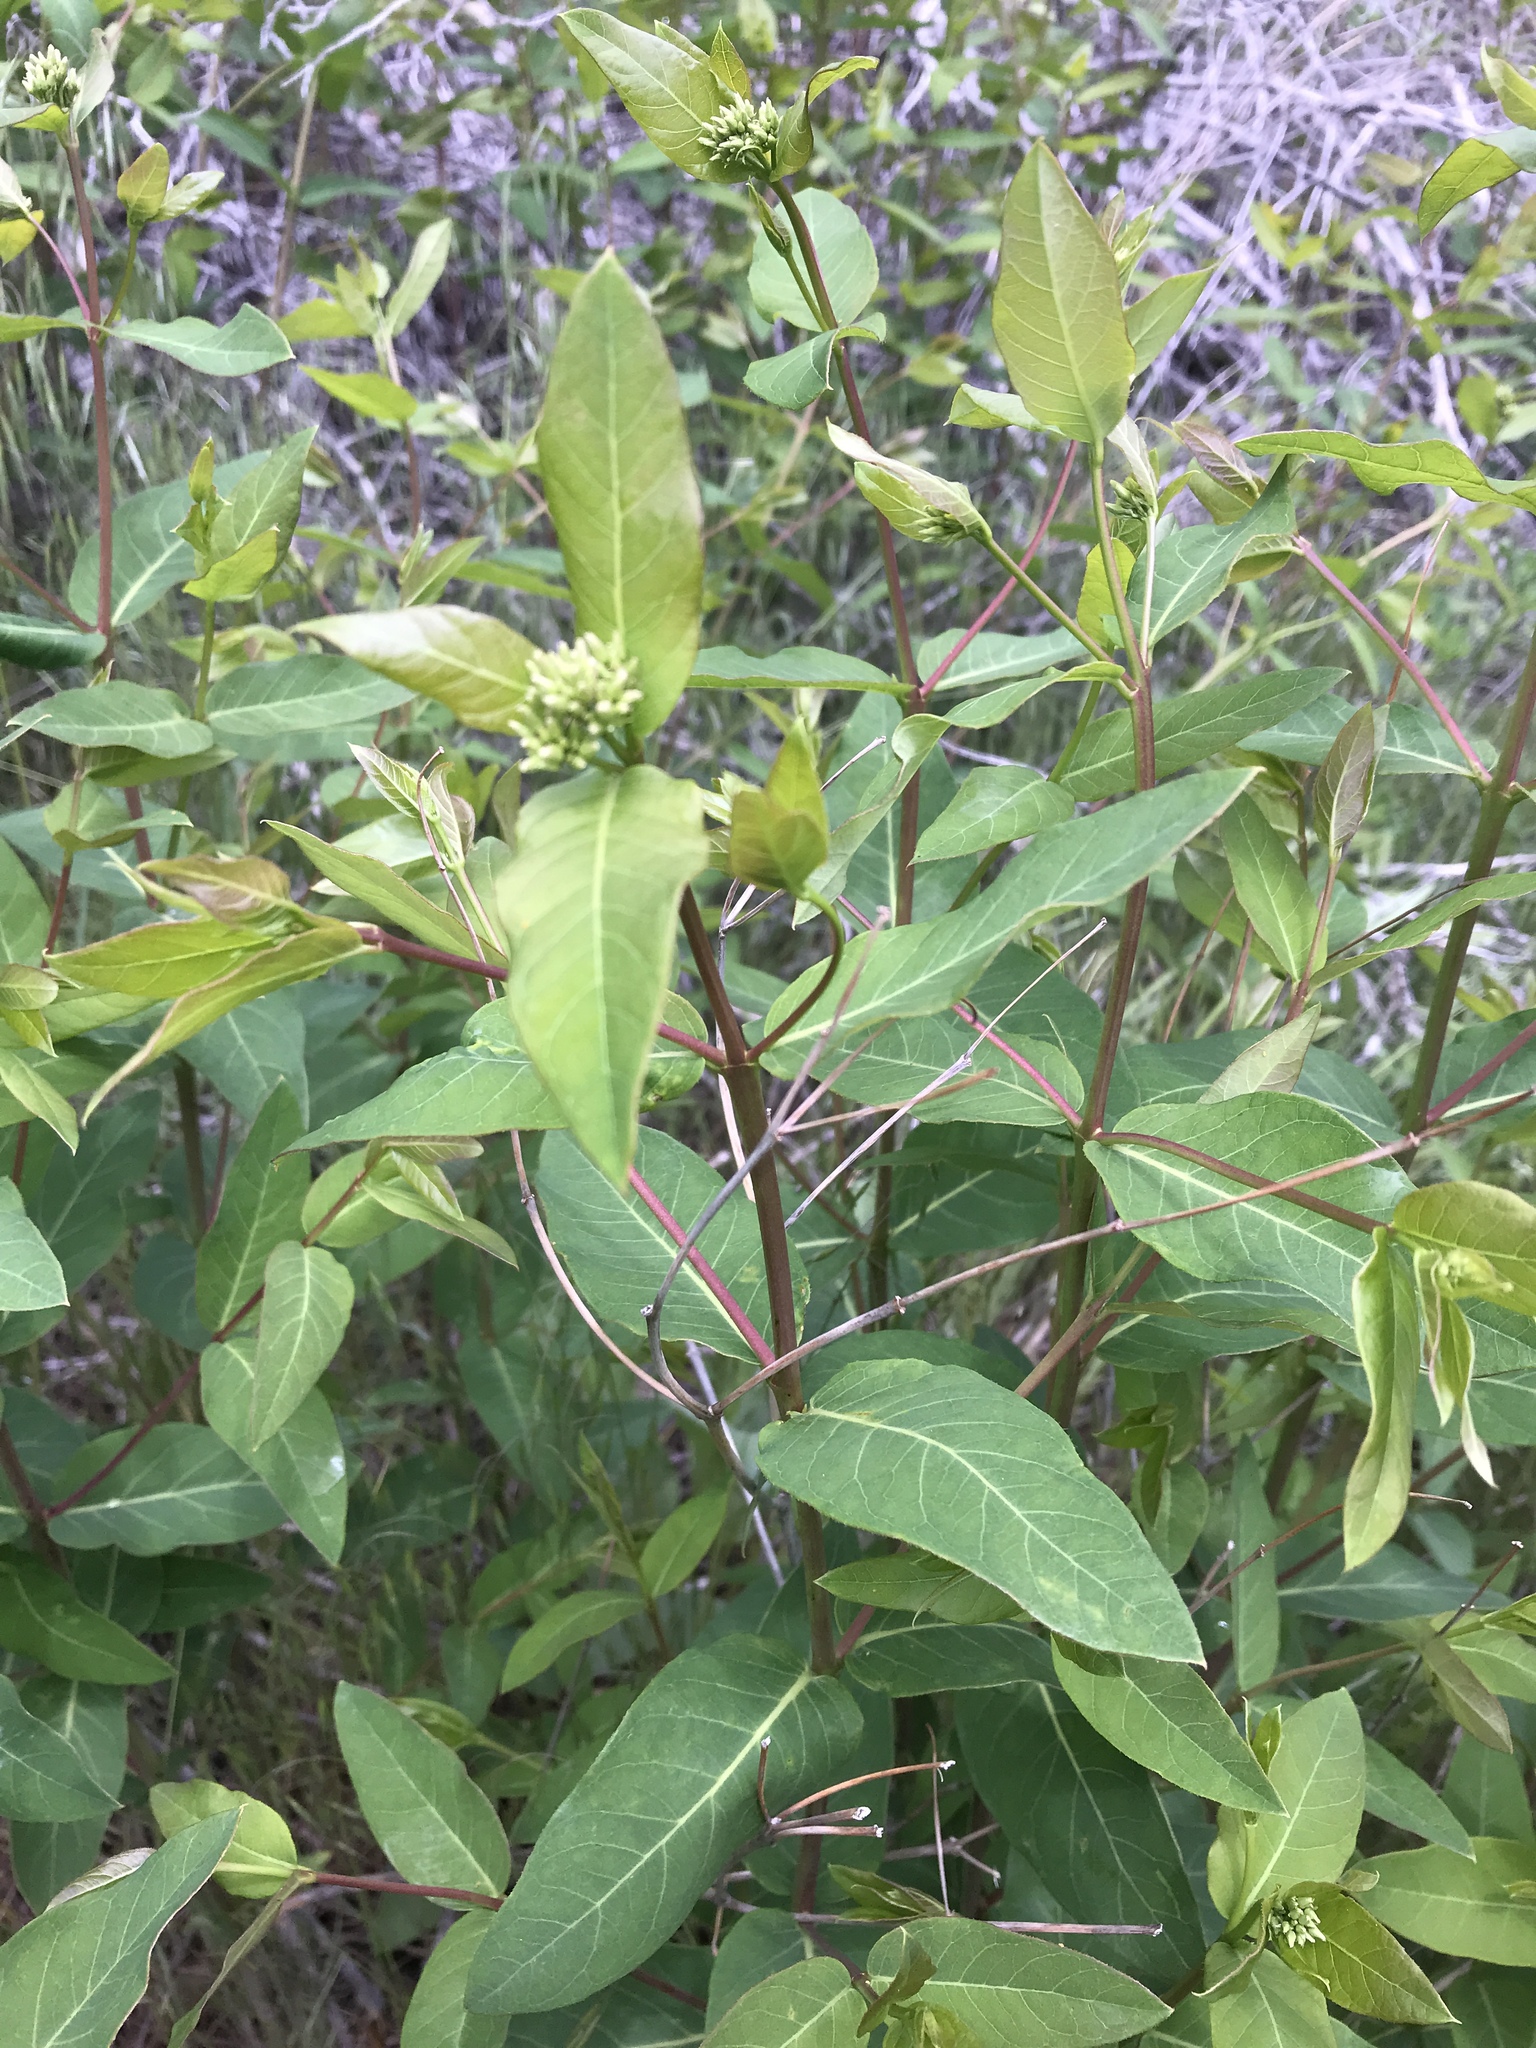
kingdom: Plantae
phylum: Tracheophyta
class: Magnoliopsida
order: Gentianales
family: Apocynaceae
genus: Apocynum
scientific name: Apocynum cannabinum
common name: Hemp dogbane
